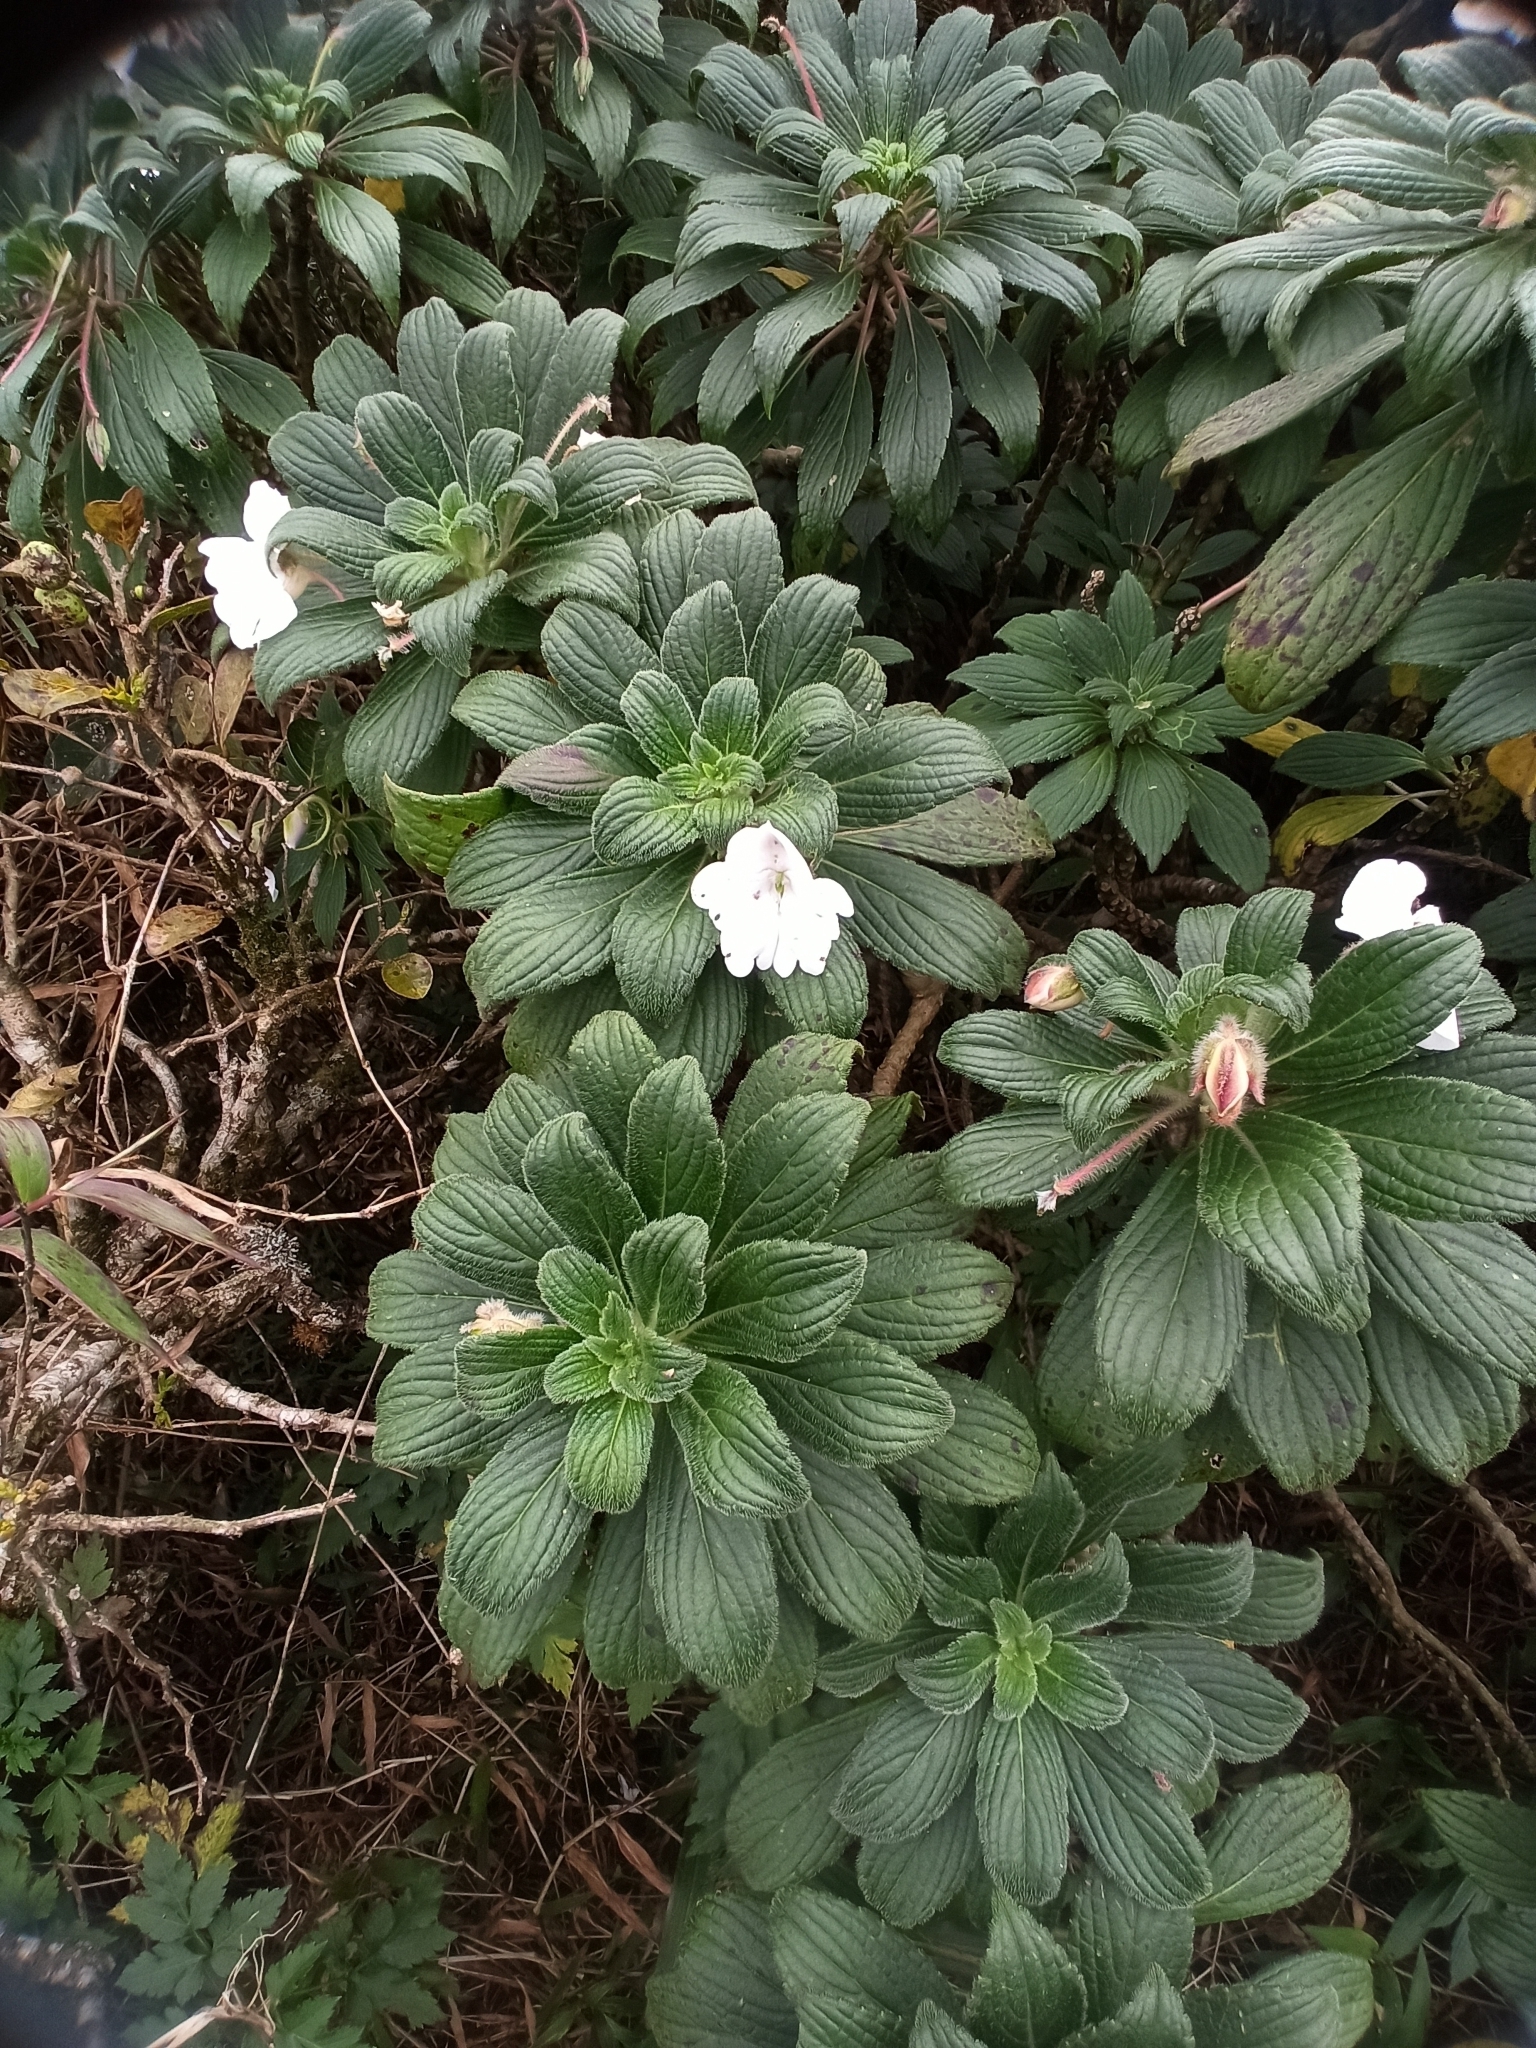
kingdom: Plantae
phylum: Tracheophyta
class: Magnoliopsida
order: Ericales
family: Balsaminaceae
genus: Impatiens
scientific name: Impatiens henslowiana
